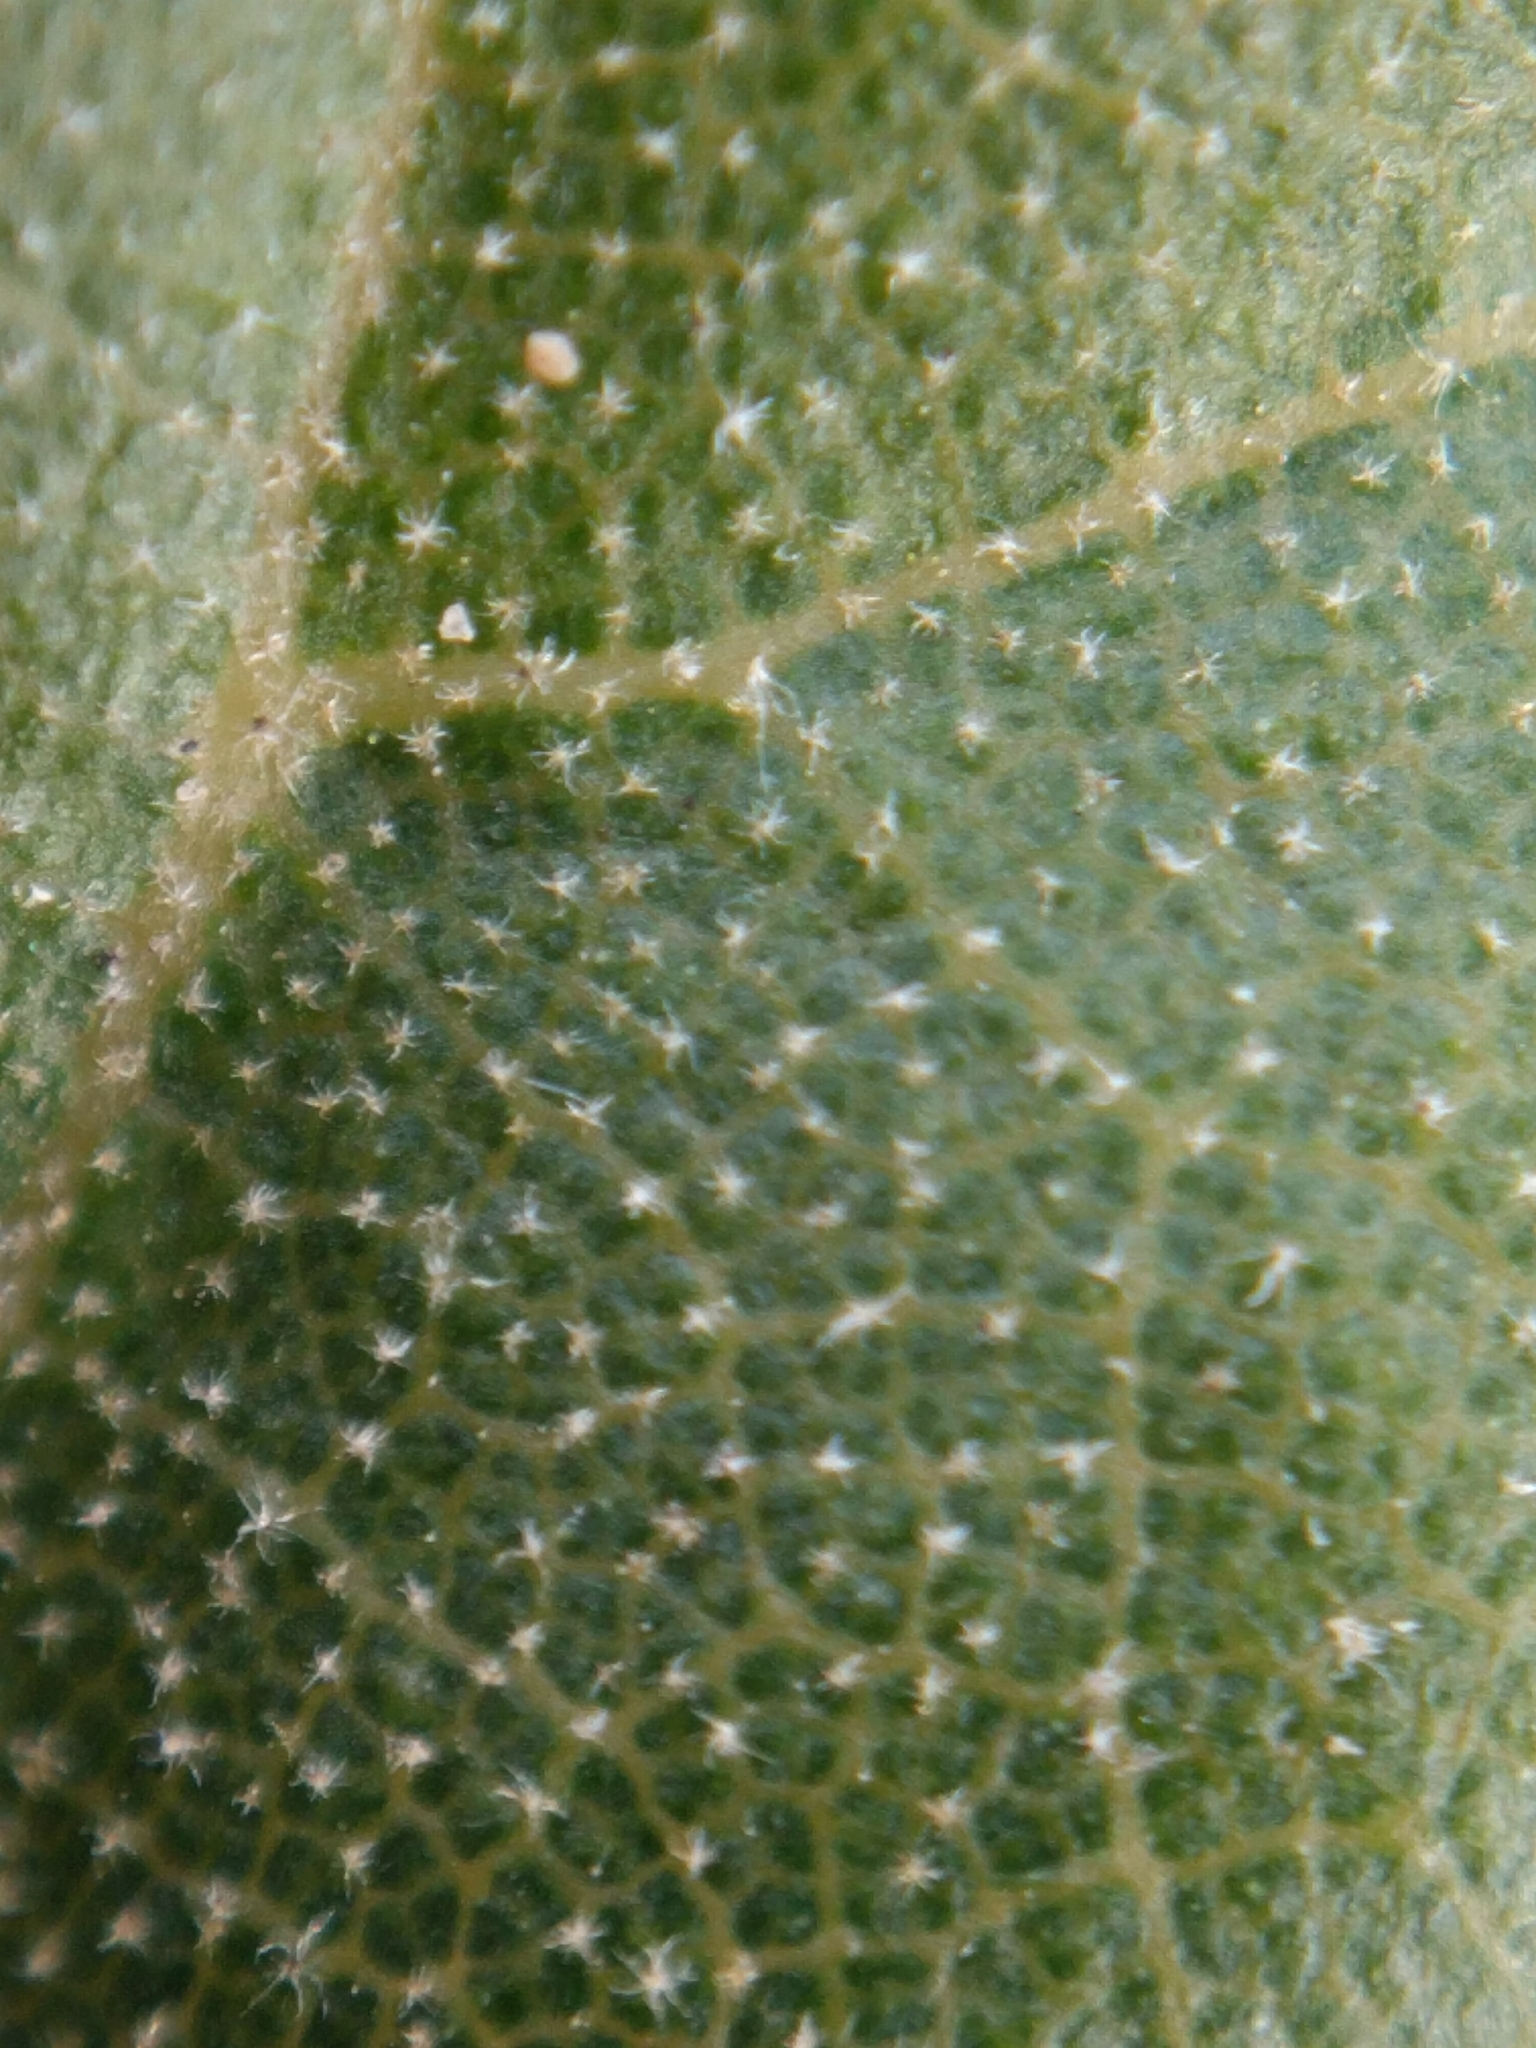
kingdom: Plantae
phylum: Tracheophyta
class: Magnoliopsida
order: Fagales
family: Fagaceae
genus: Quercus
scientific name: Quercus berberidifolia
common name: California scrub oak
